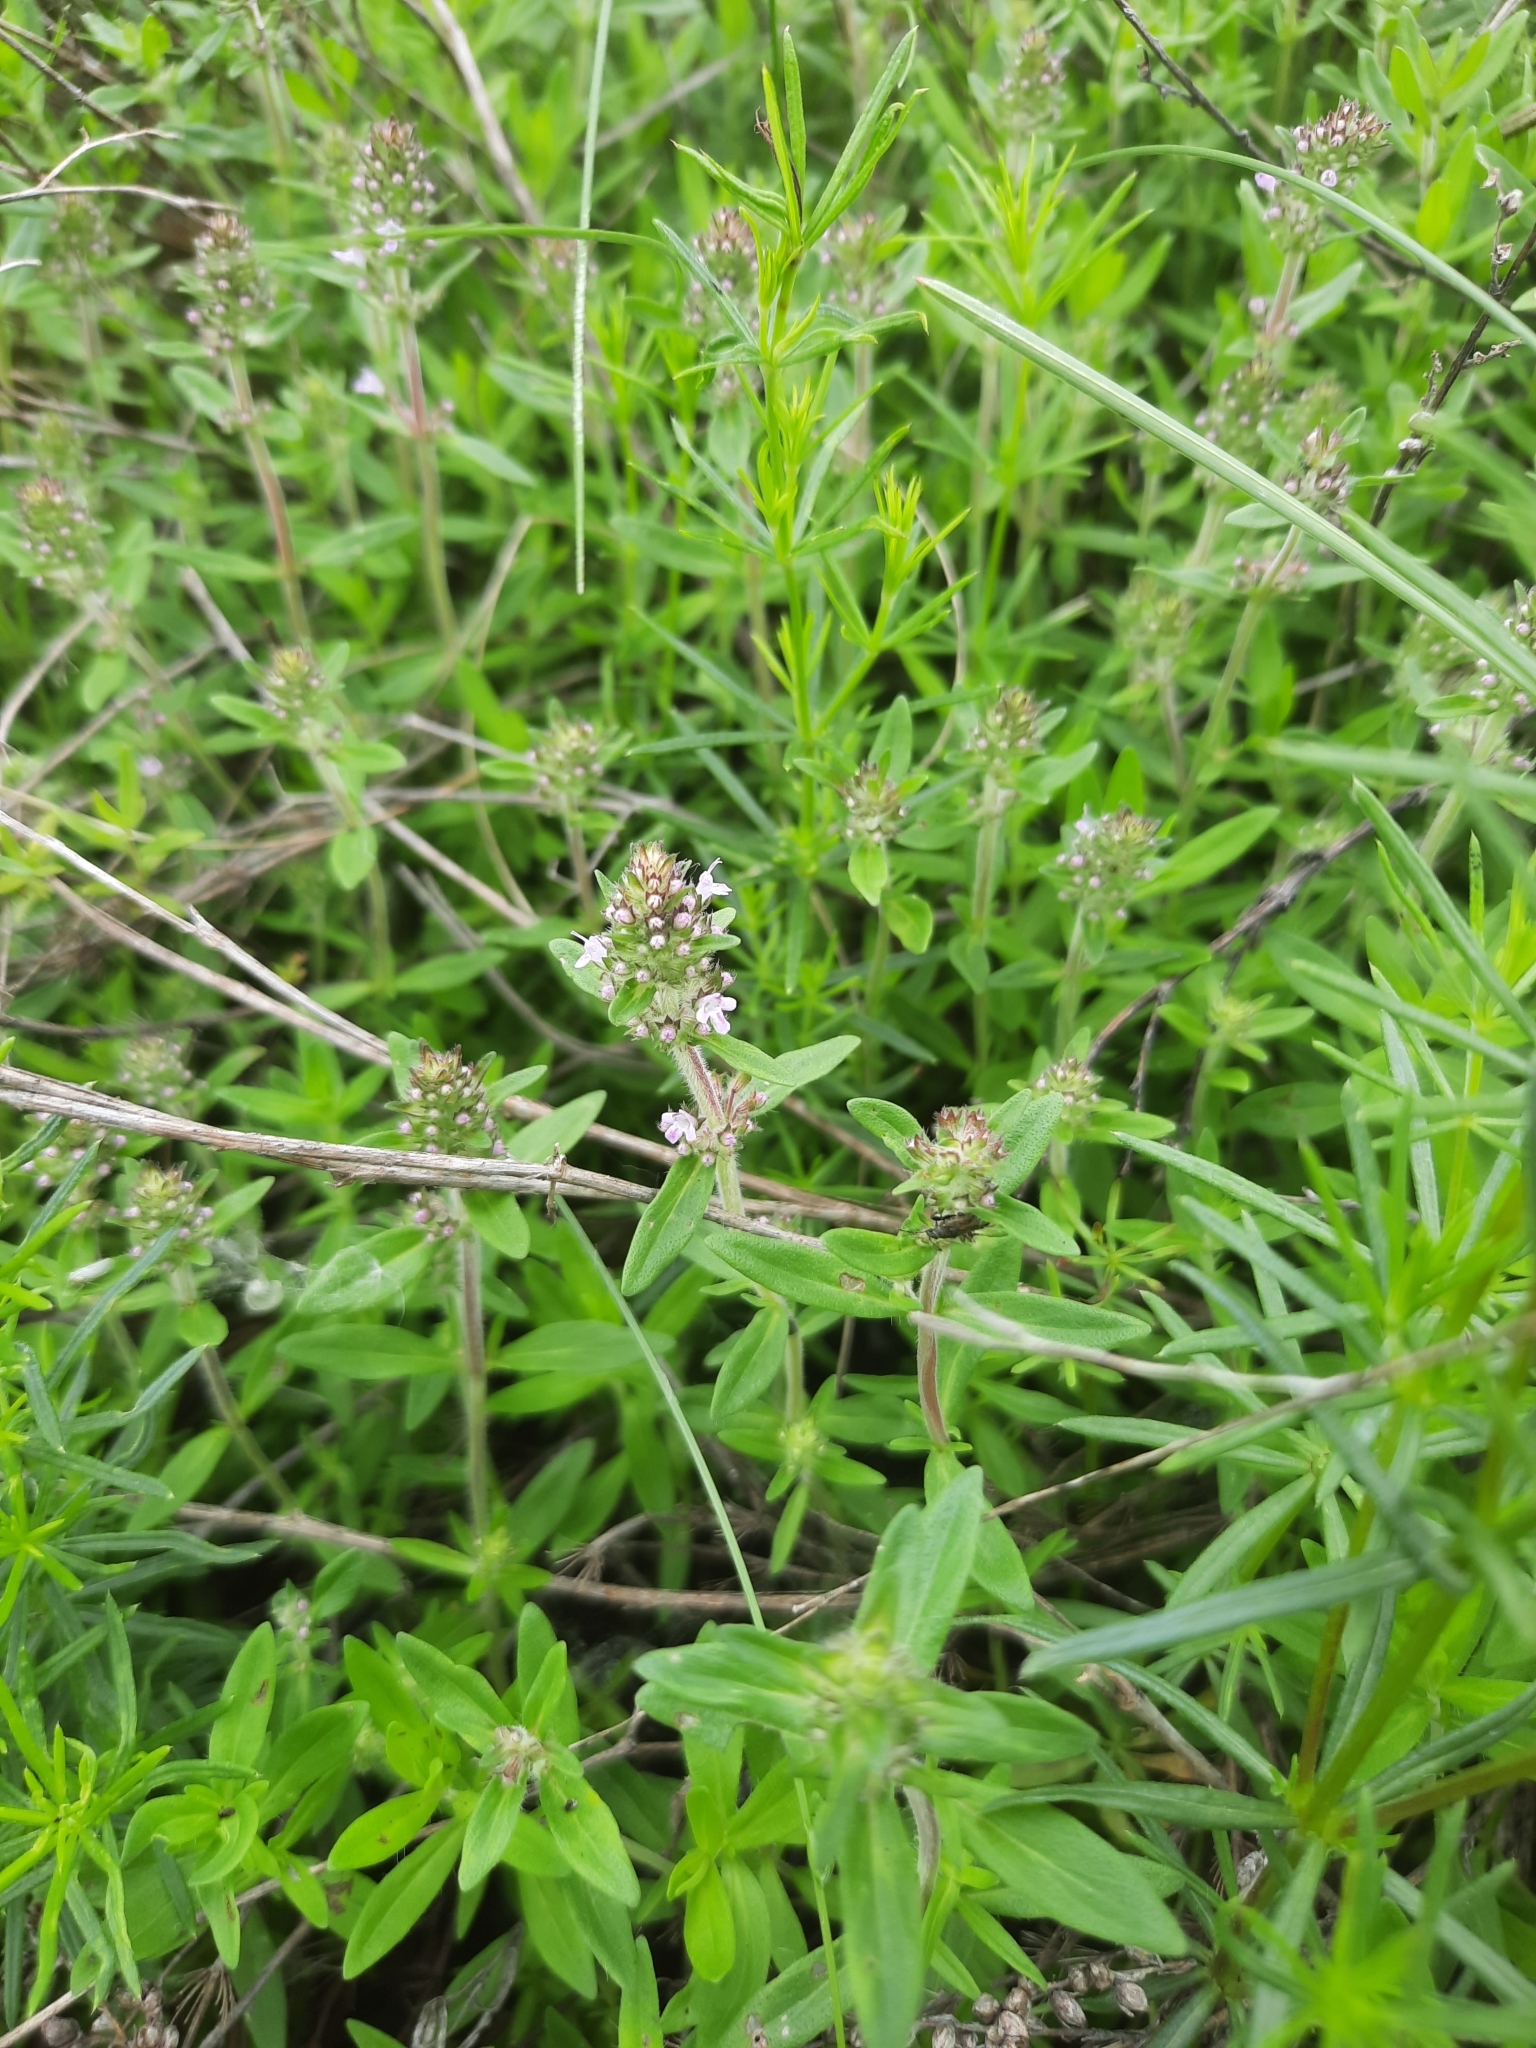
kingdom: Plantae
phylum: Tracheophyta
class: Magnoliopsida
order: Lamiales
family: Lamiaceae
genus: Thymus
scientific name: Thymus pannonicus
